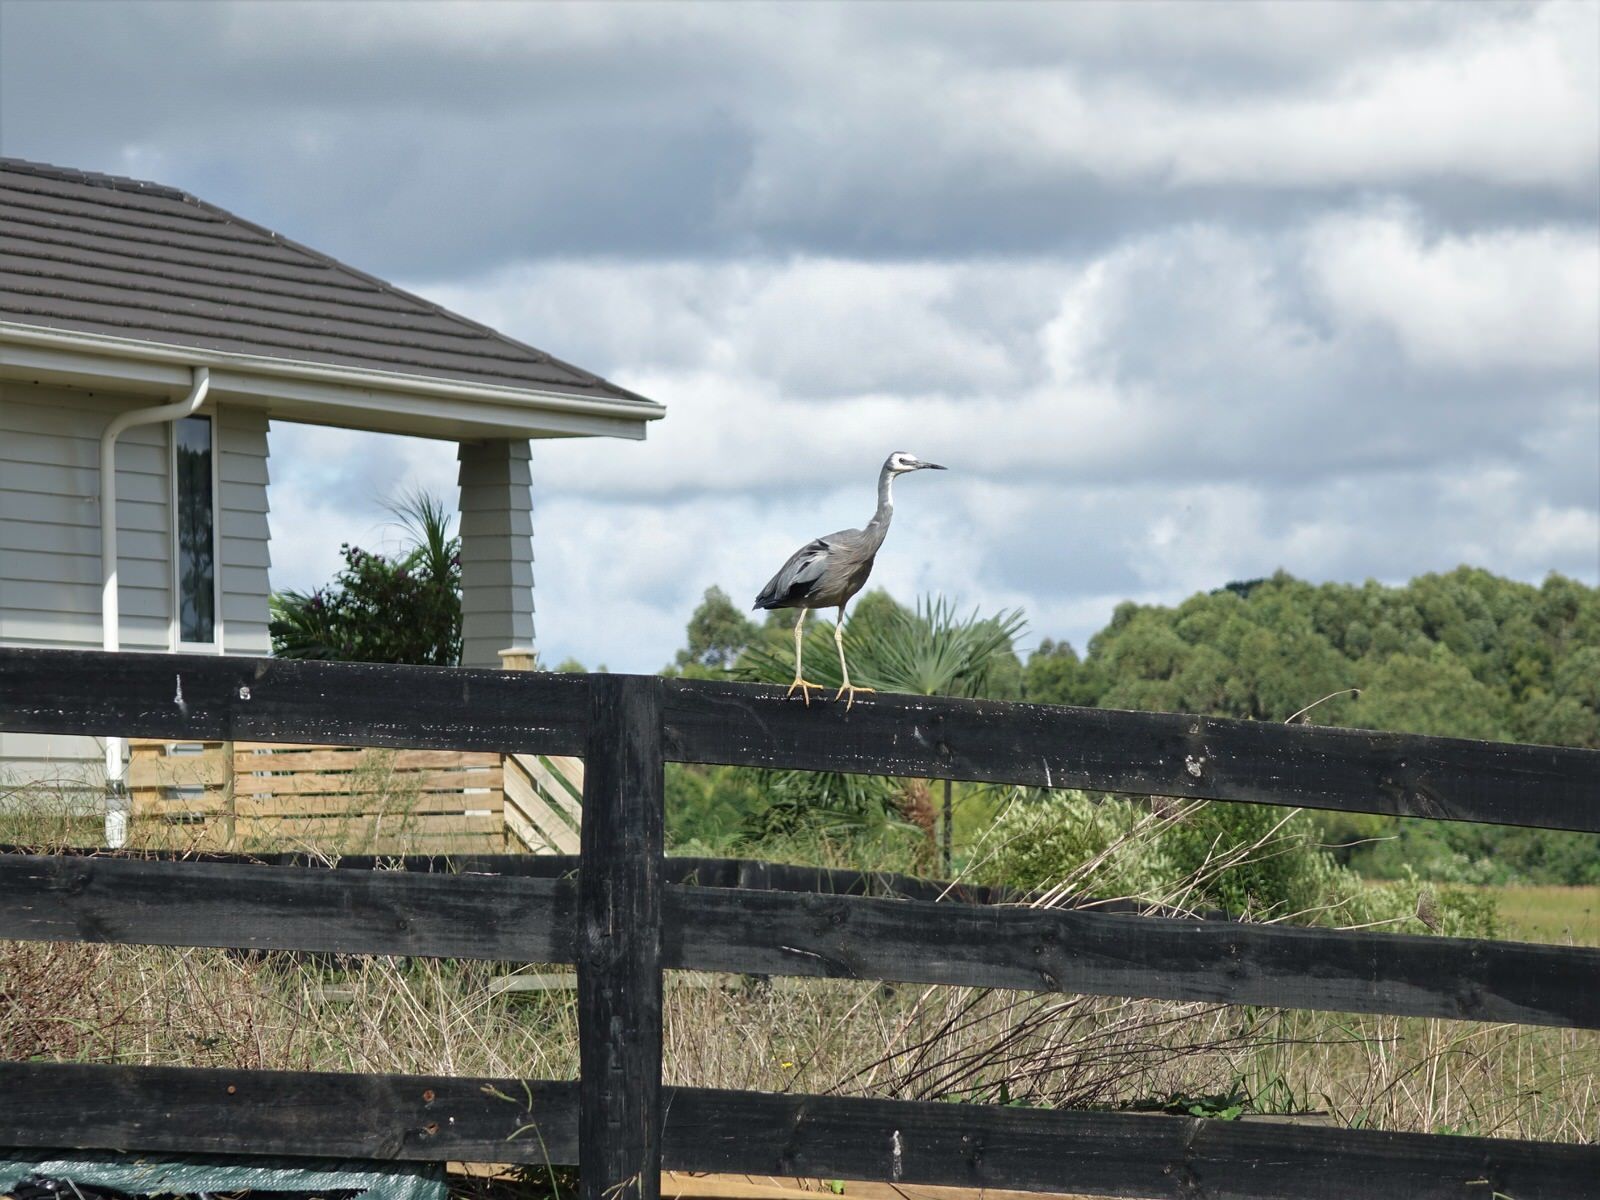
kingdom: Animalia
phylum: Chordata
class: Aves
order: Pelecaniformes
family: Ardeidae
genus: Egretta
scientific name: Egretta novaehollandiae
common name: White-faced heron
